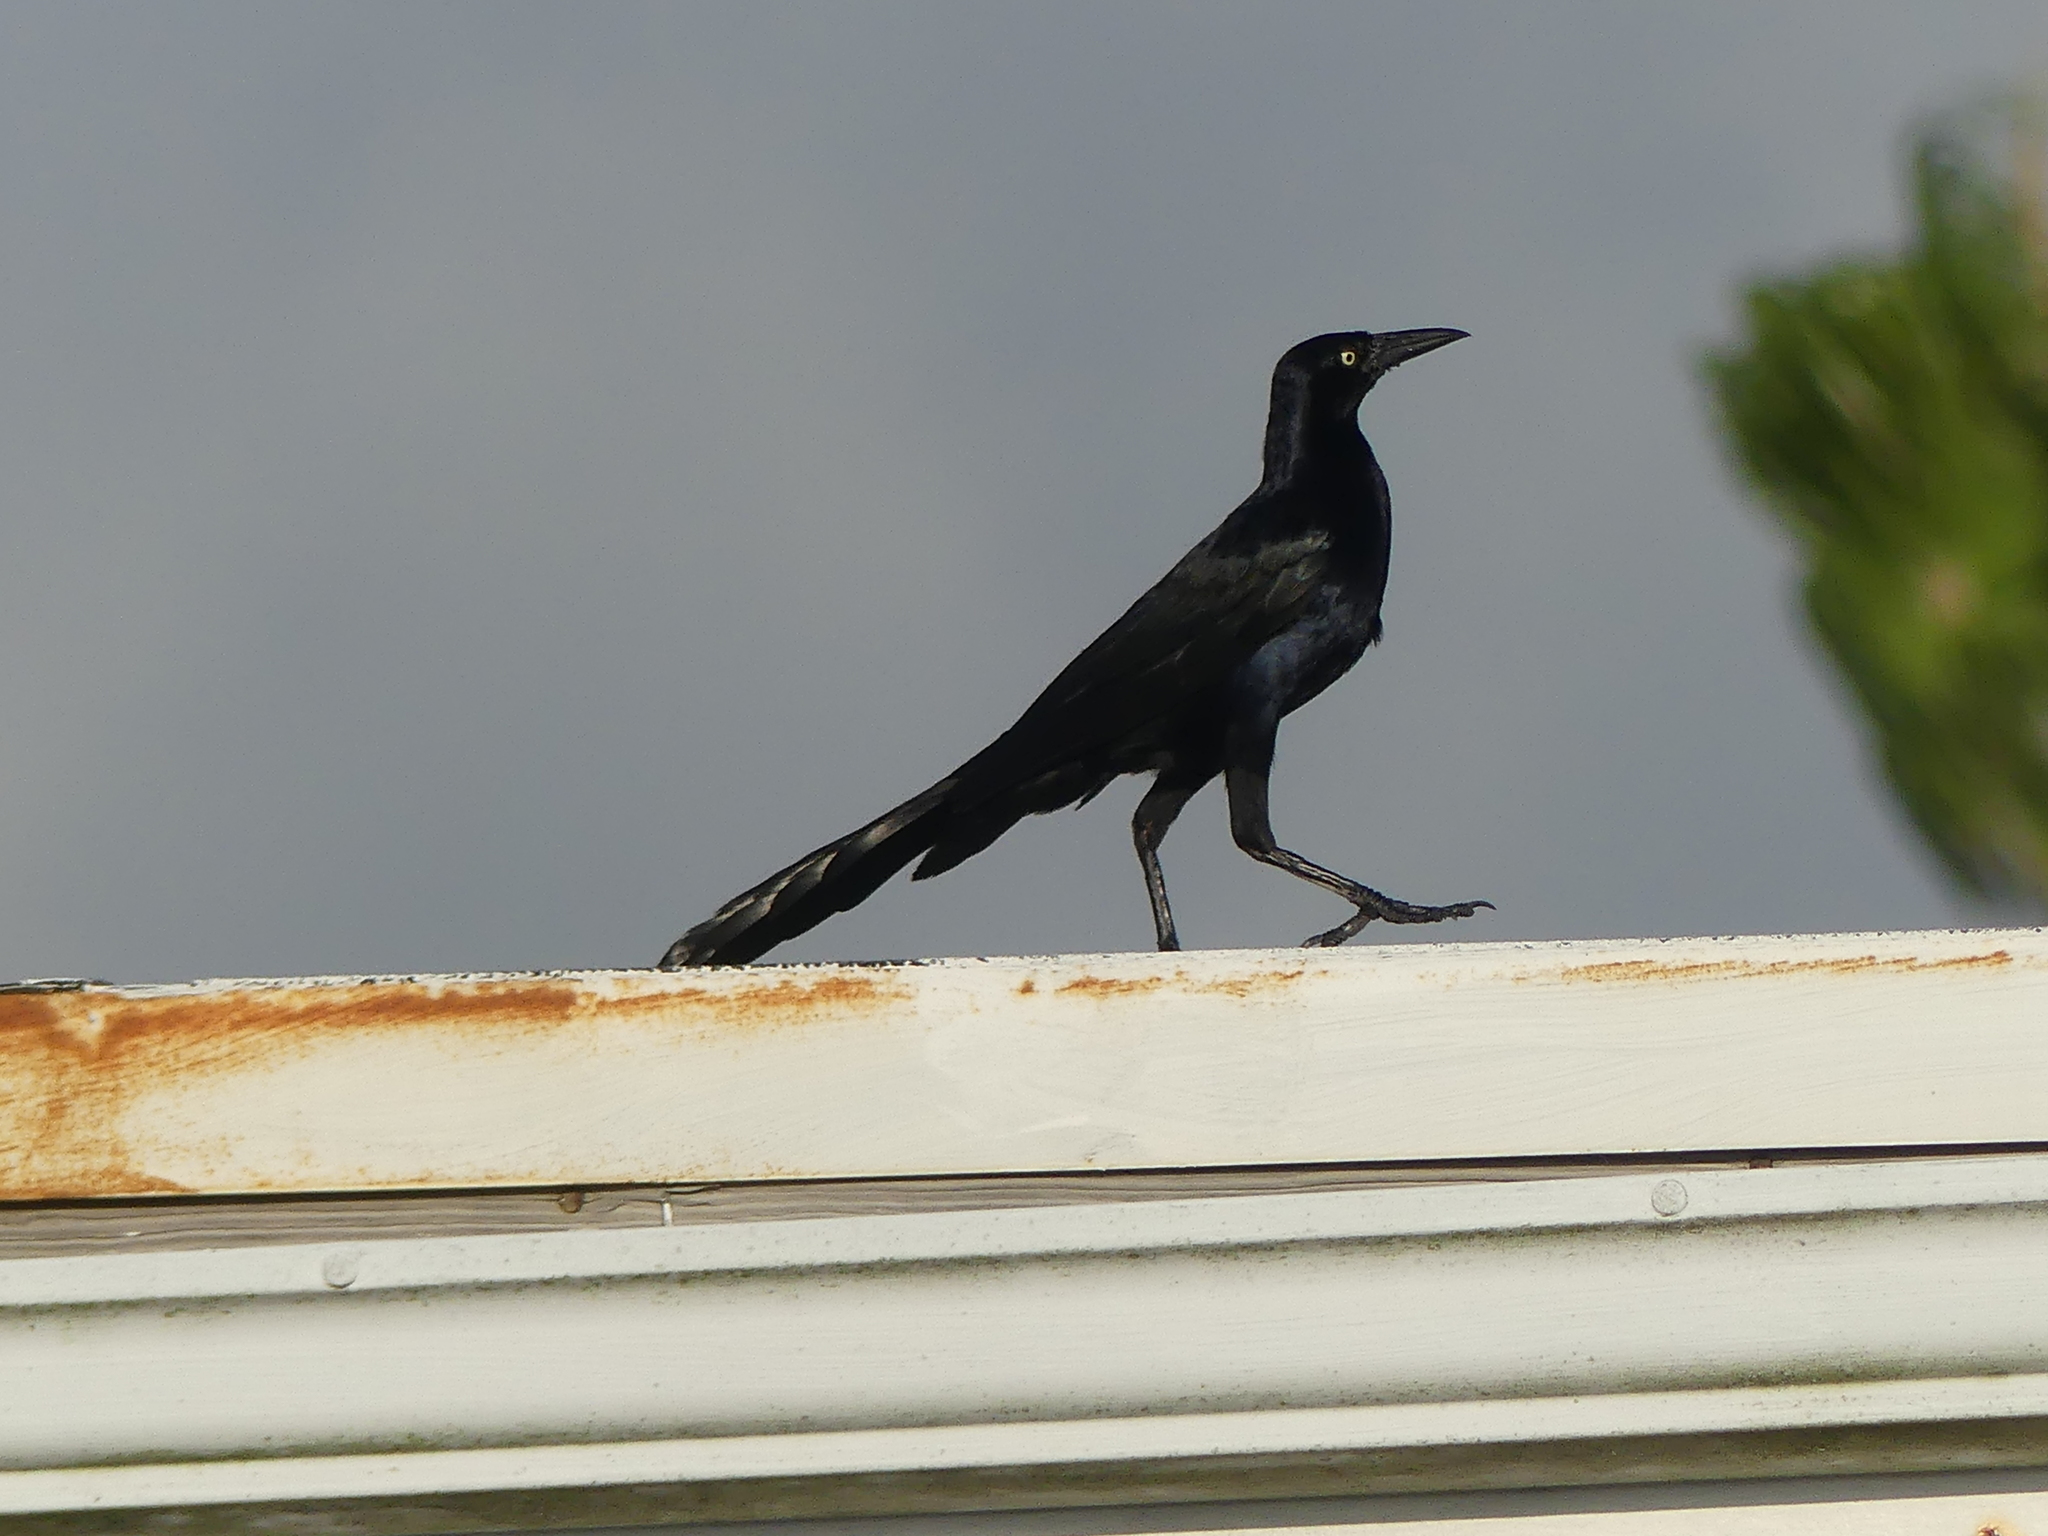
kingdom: Animalia
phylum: Chordata
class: Aves
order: Passeriformes
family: Icteridae
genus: Quiscalus
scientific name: Quiscalus mexicanus
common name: Great-tailed grackle
